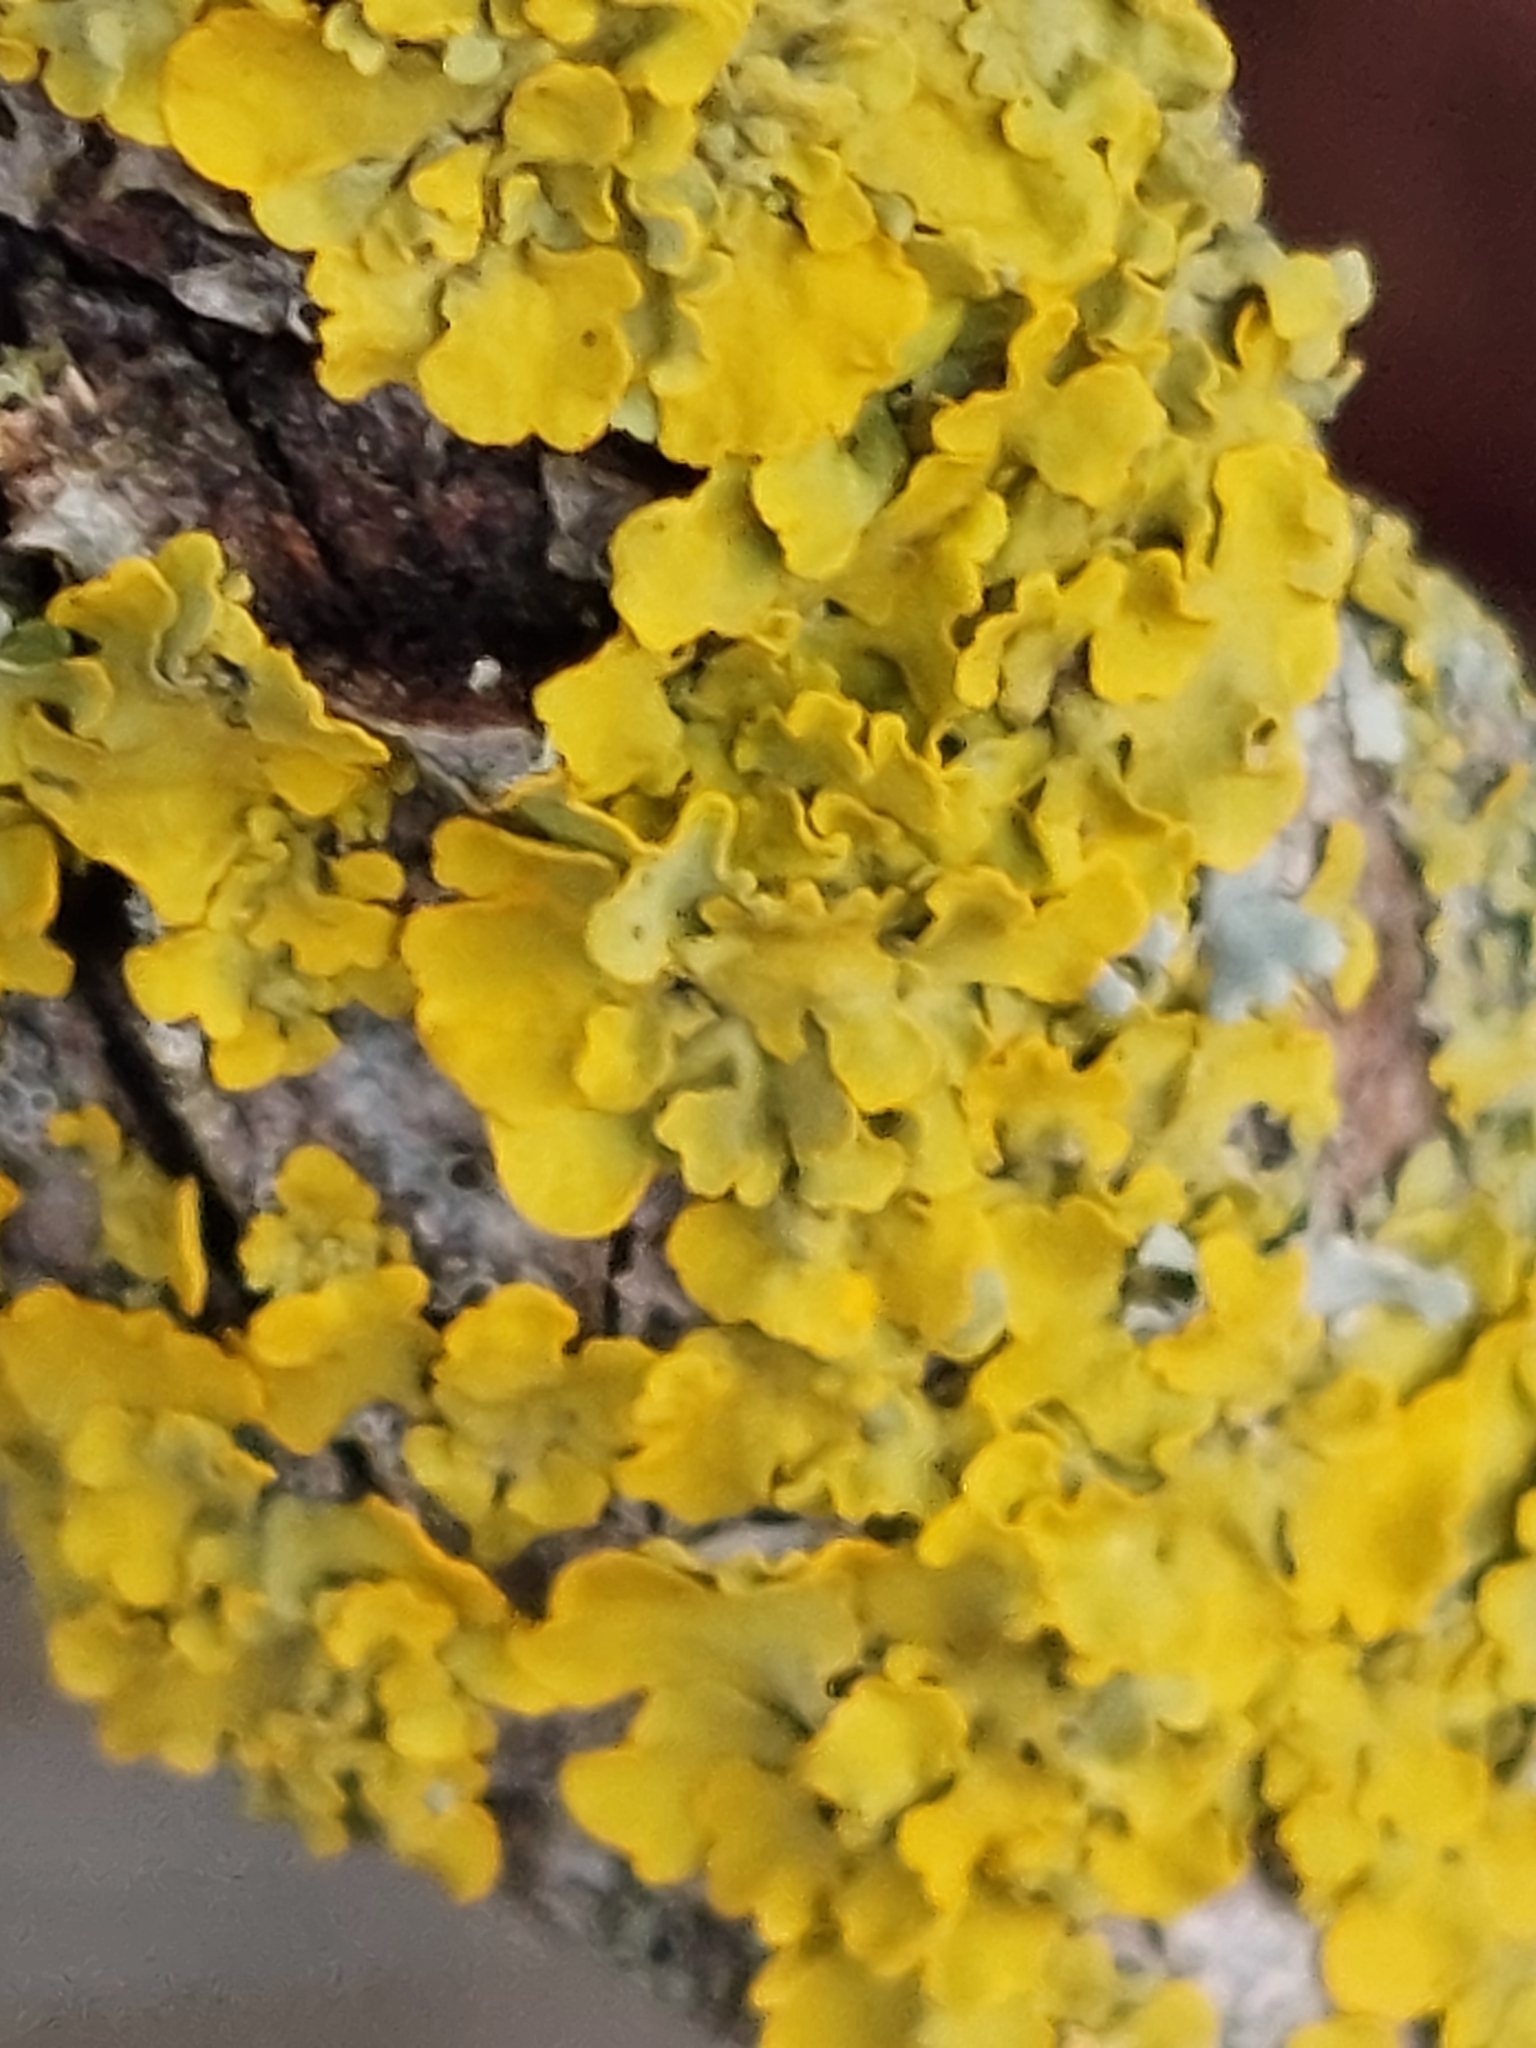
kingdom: Fungi
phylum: Ascomycota
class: Lecanoromycetes
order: Teloschistales
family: Teloschistaceae
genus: Xanthoria
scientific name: Xanthoria parietina
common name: Common orange lichen
